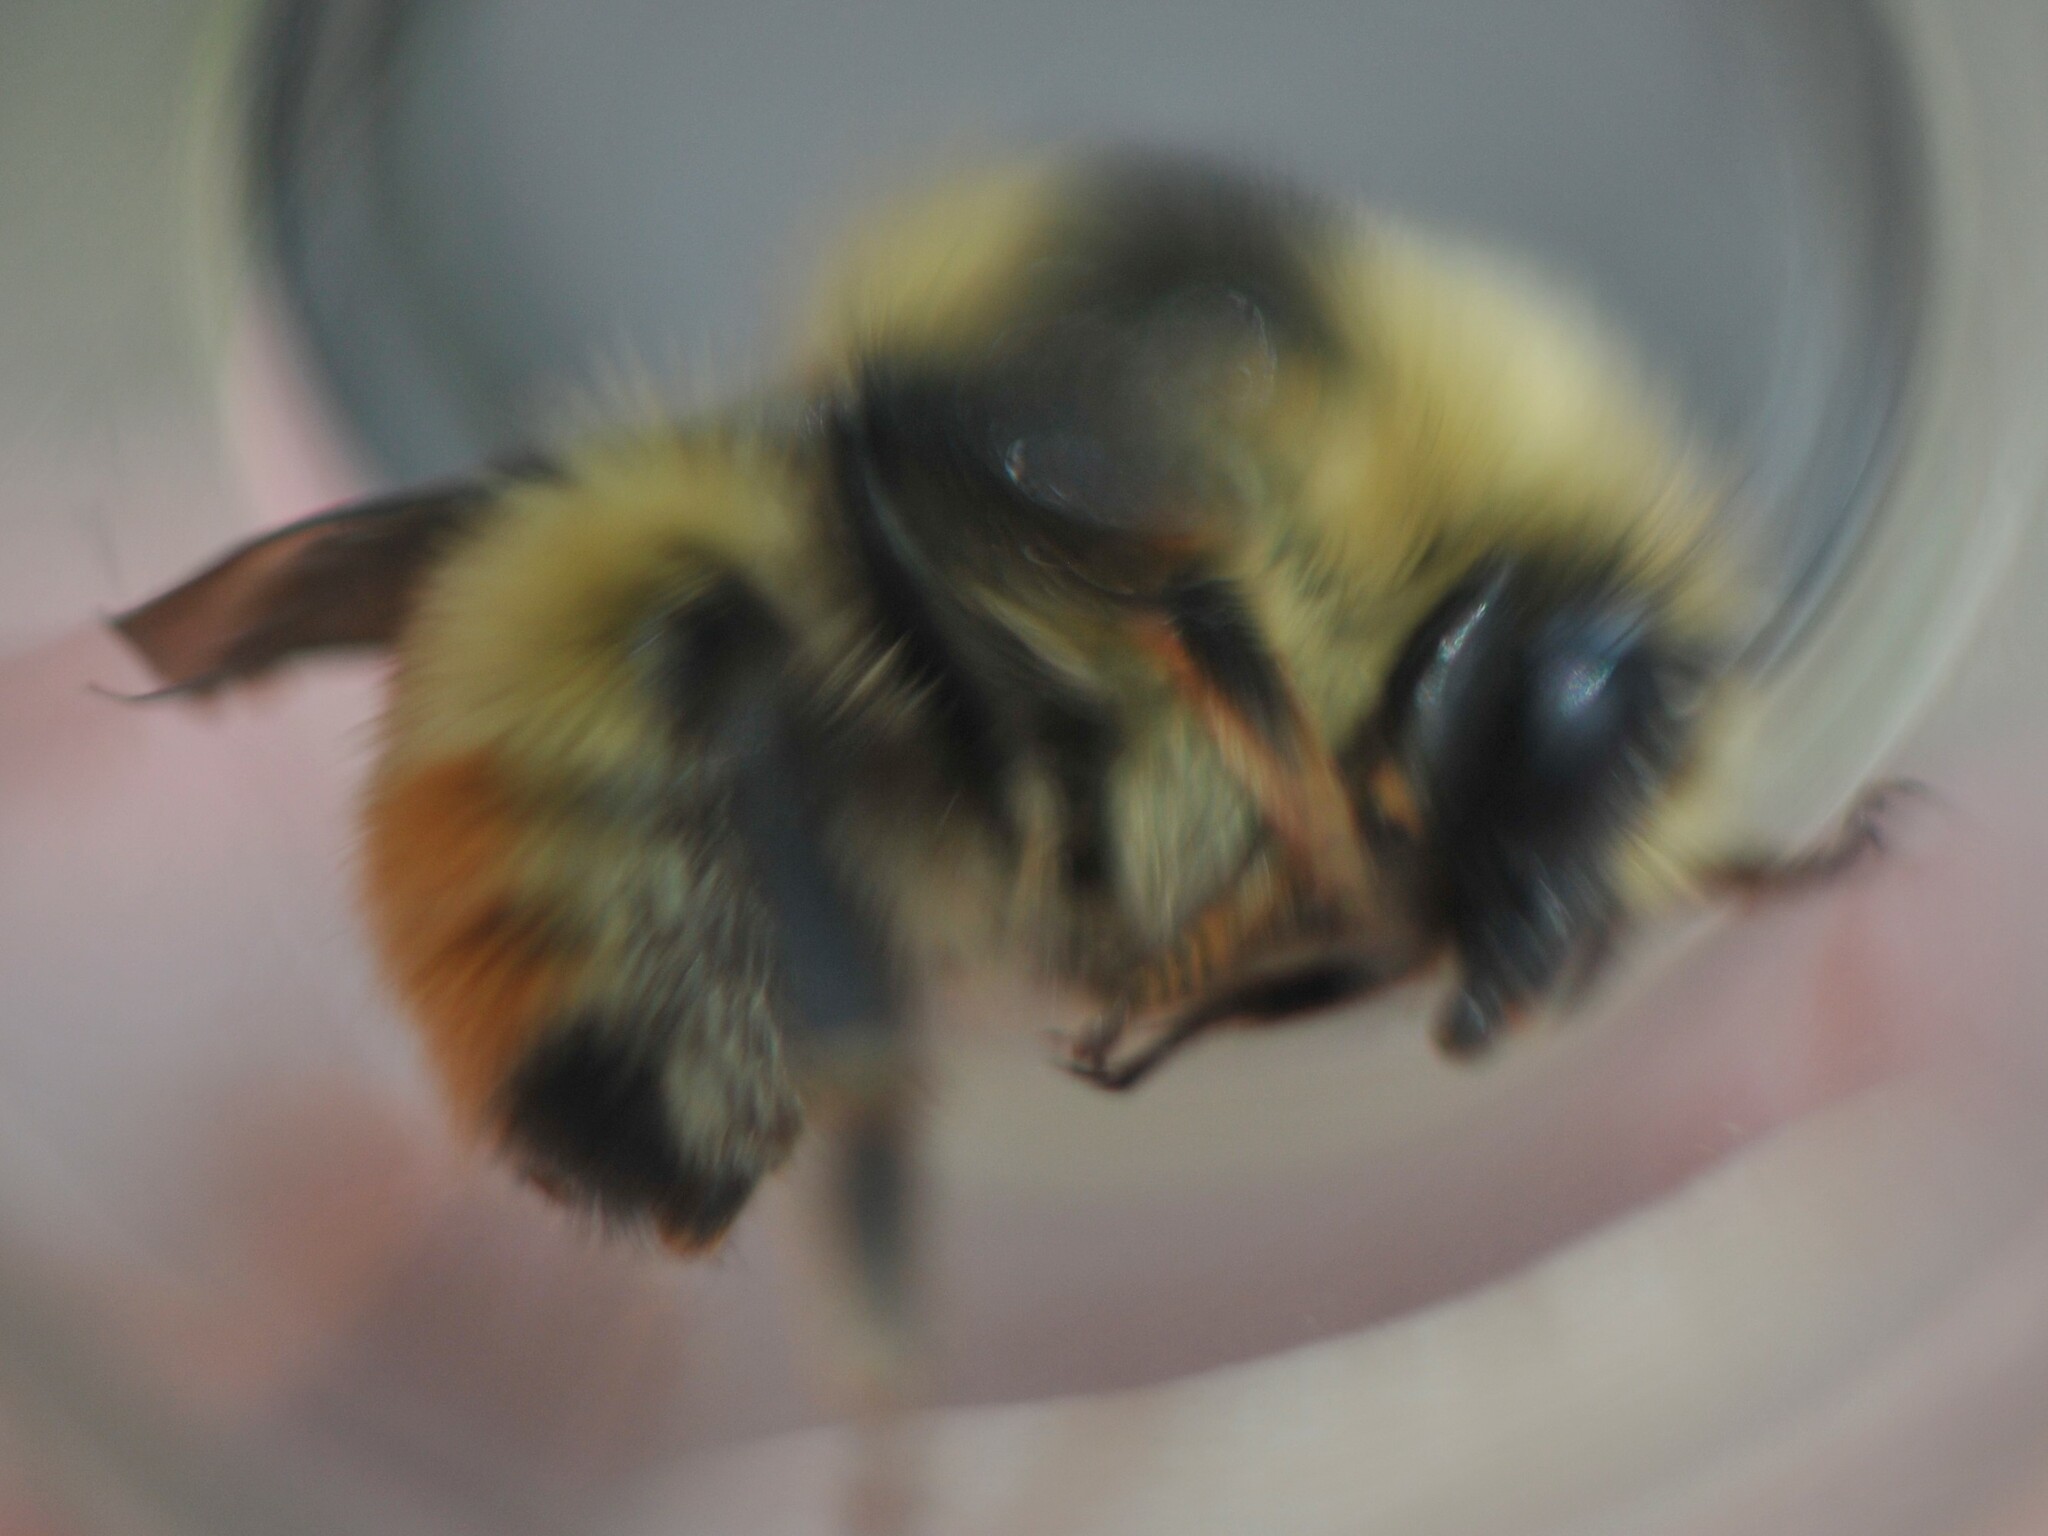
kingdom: Animalia
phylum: Arthropoda
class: Insecta
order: Hymenoptera
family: Apidae
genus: Bombus
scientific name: Bombus centralis
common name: Central bumble bee
